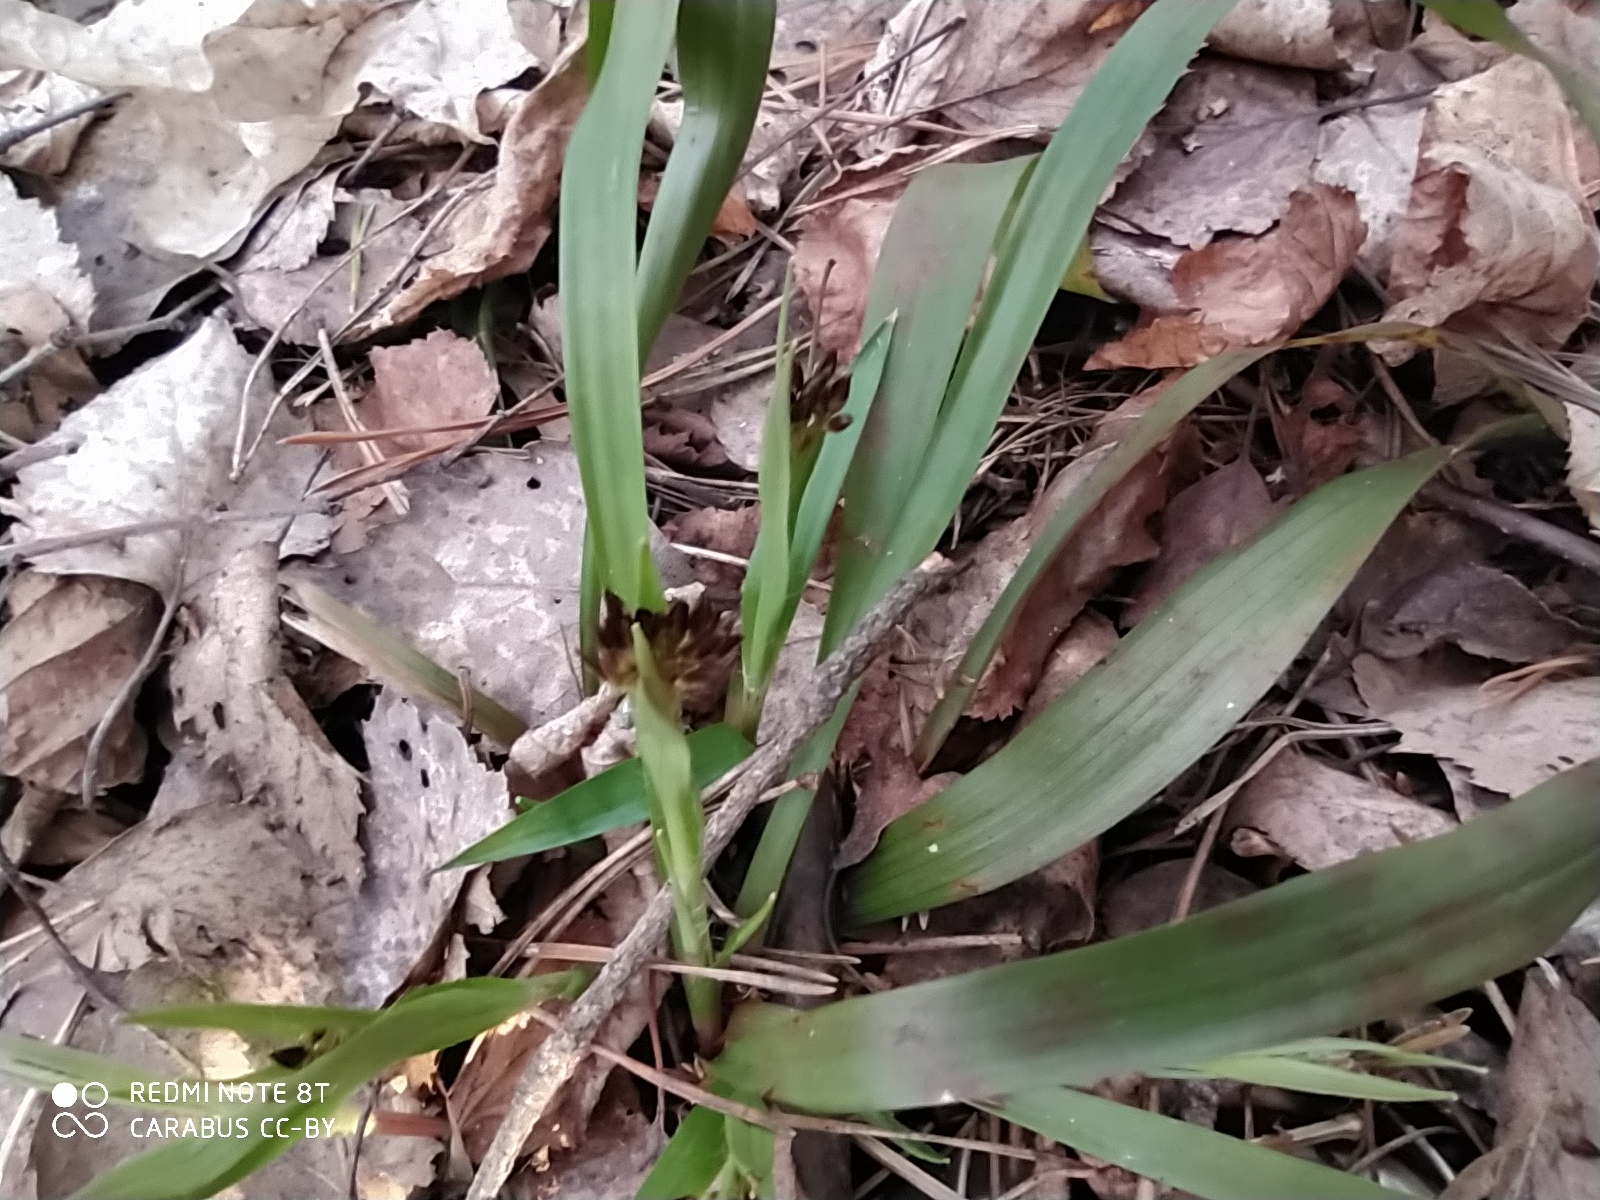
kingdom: Plantae
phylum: Tracheophyta
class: Liliopsida
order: Poales
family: Juncaceae
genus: Luzula
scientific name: Luzula pilosa
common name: Hairy wood-rush
